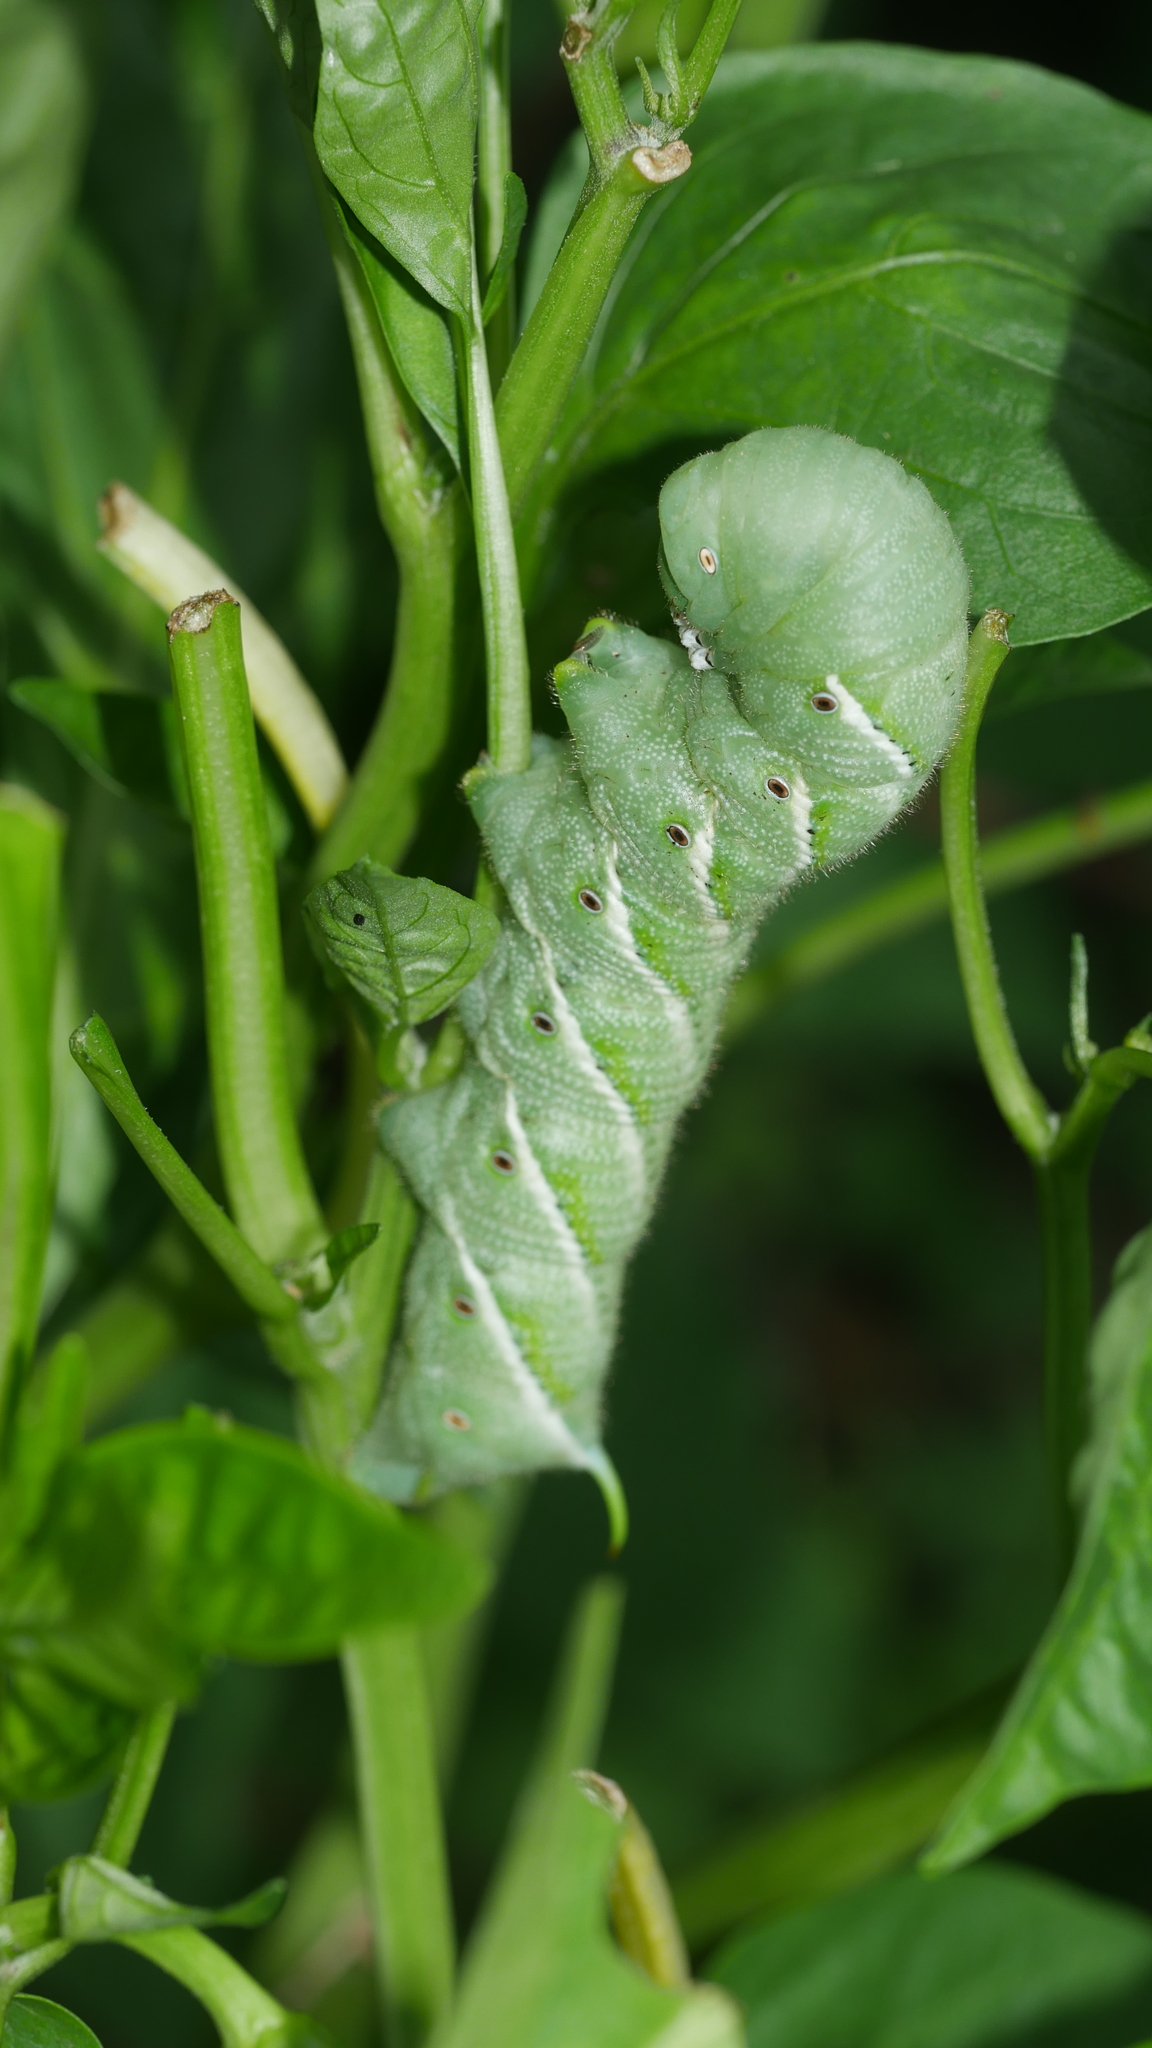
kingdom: Animalia
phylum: Arthropoda
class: Insecta
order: Lepidoptera
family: Sphingidae
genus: Manduca
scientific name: Manduca sexta
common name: Carolina sphinx
